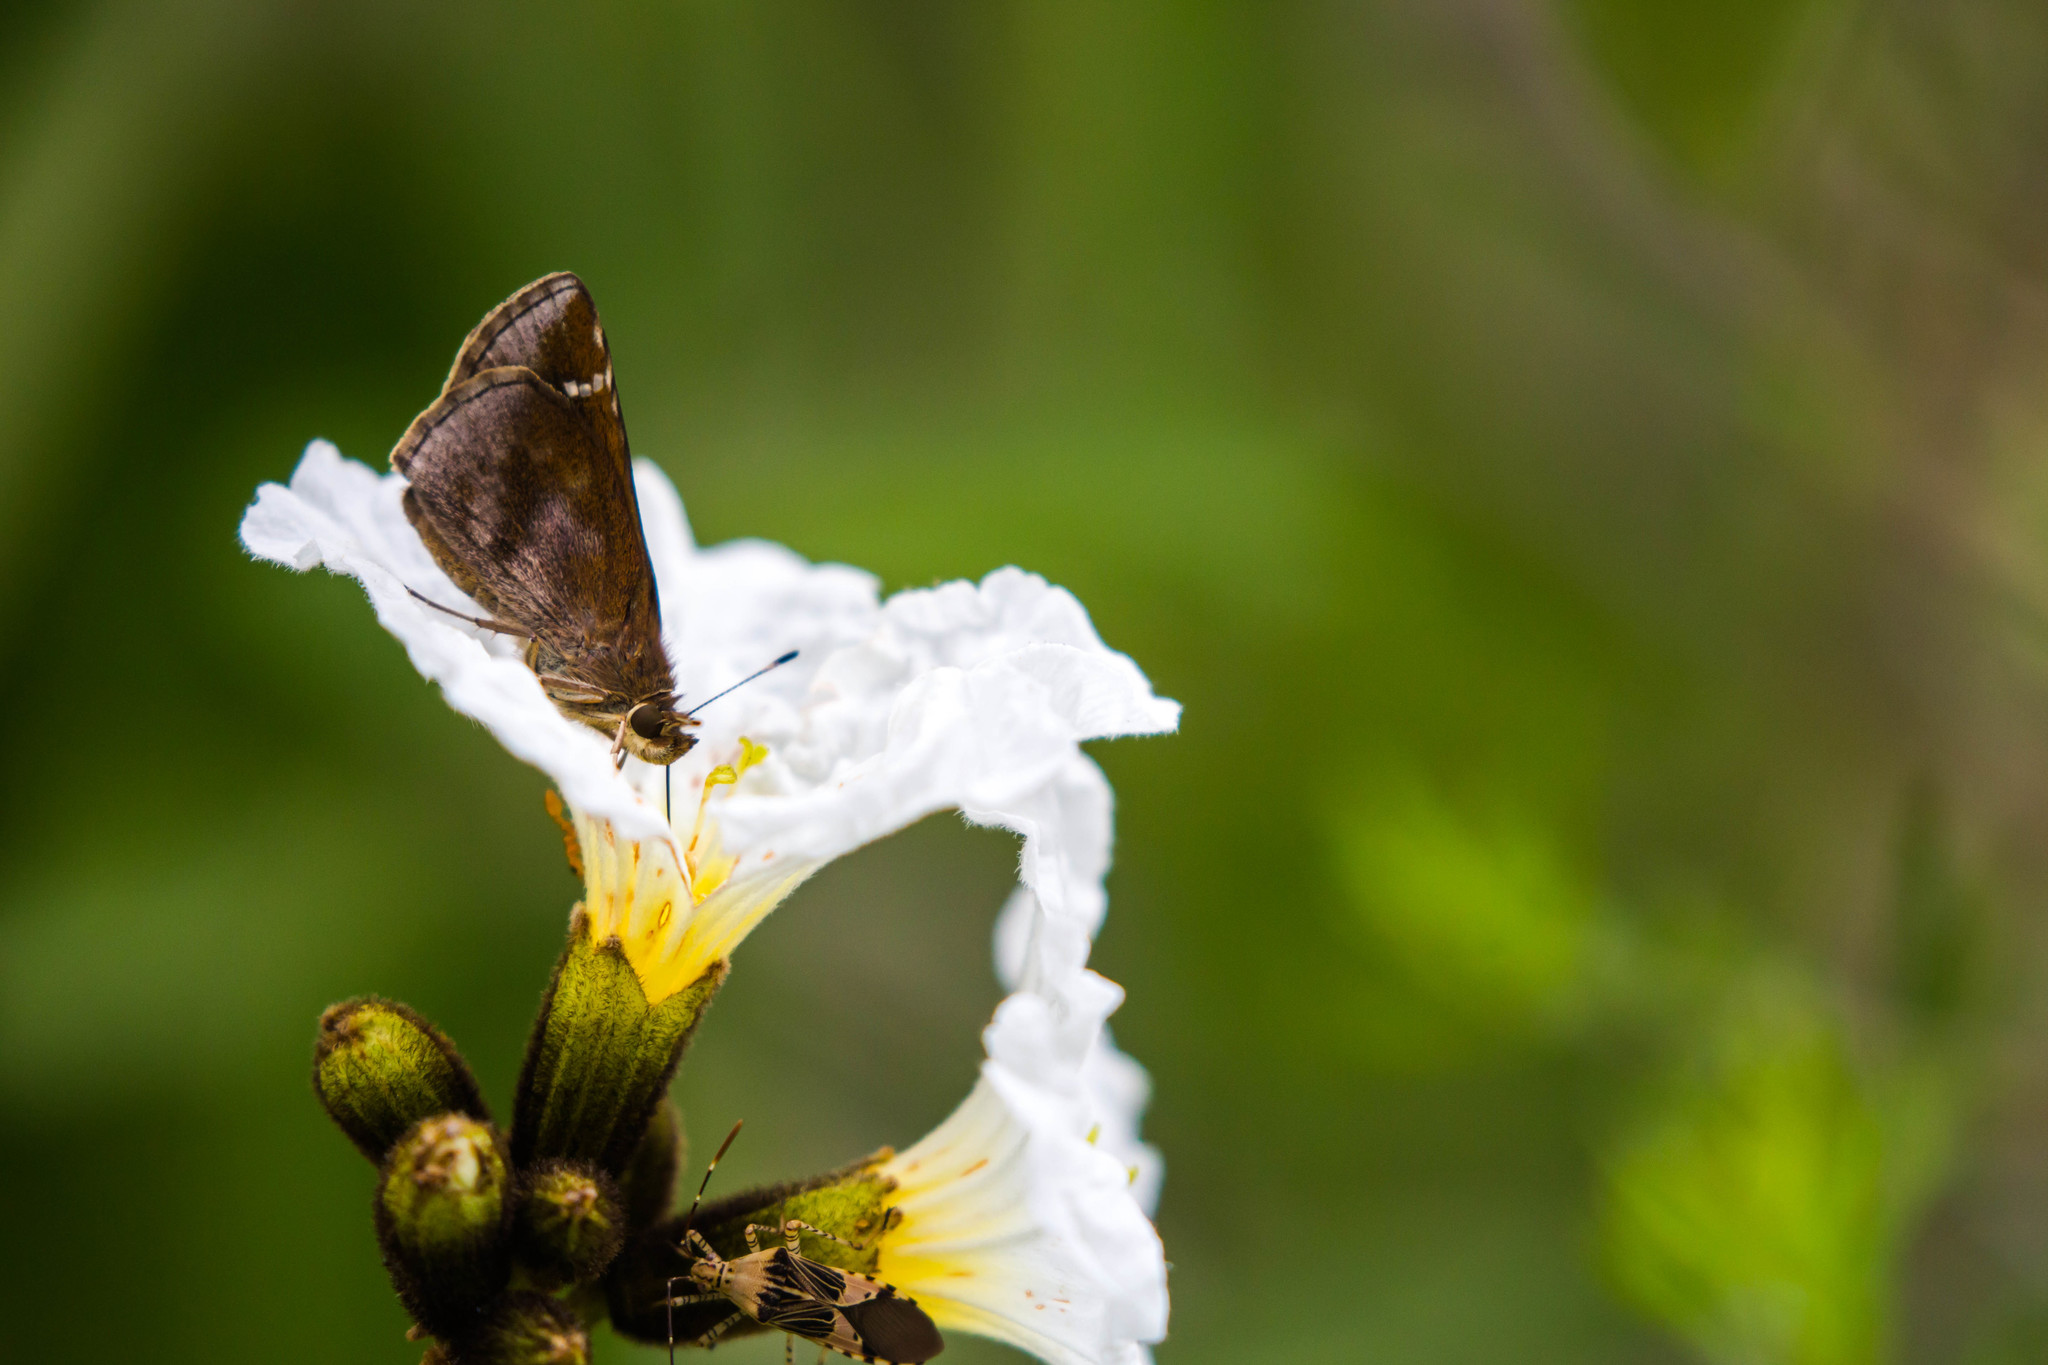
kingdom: Animalia
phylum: Arthropoda
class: Insecta
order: Lepidoptera
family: Hesperiidae
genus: Lerema
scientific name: Lerema accius
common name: Clouded skipper
